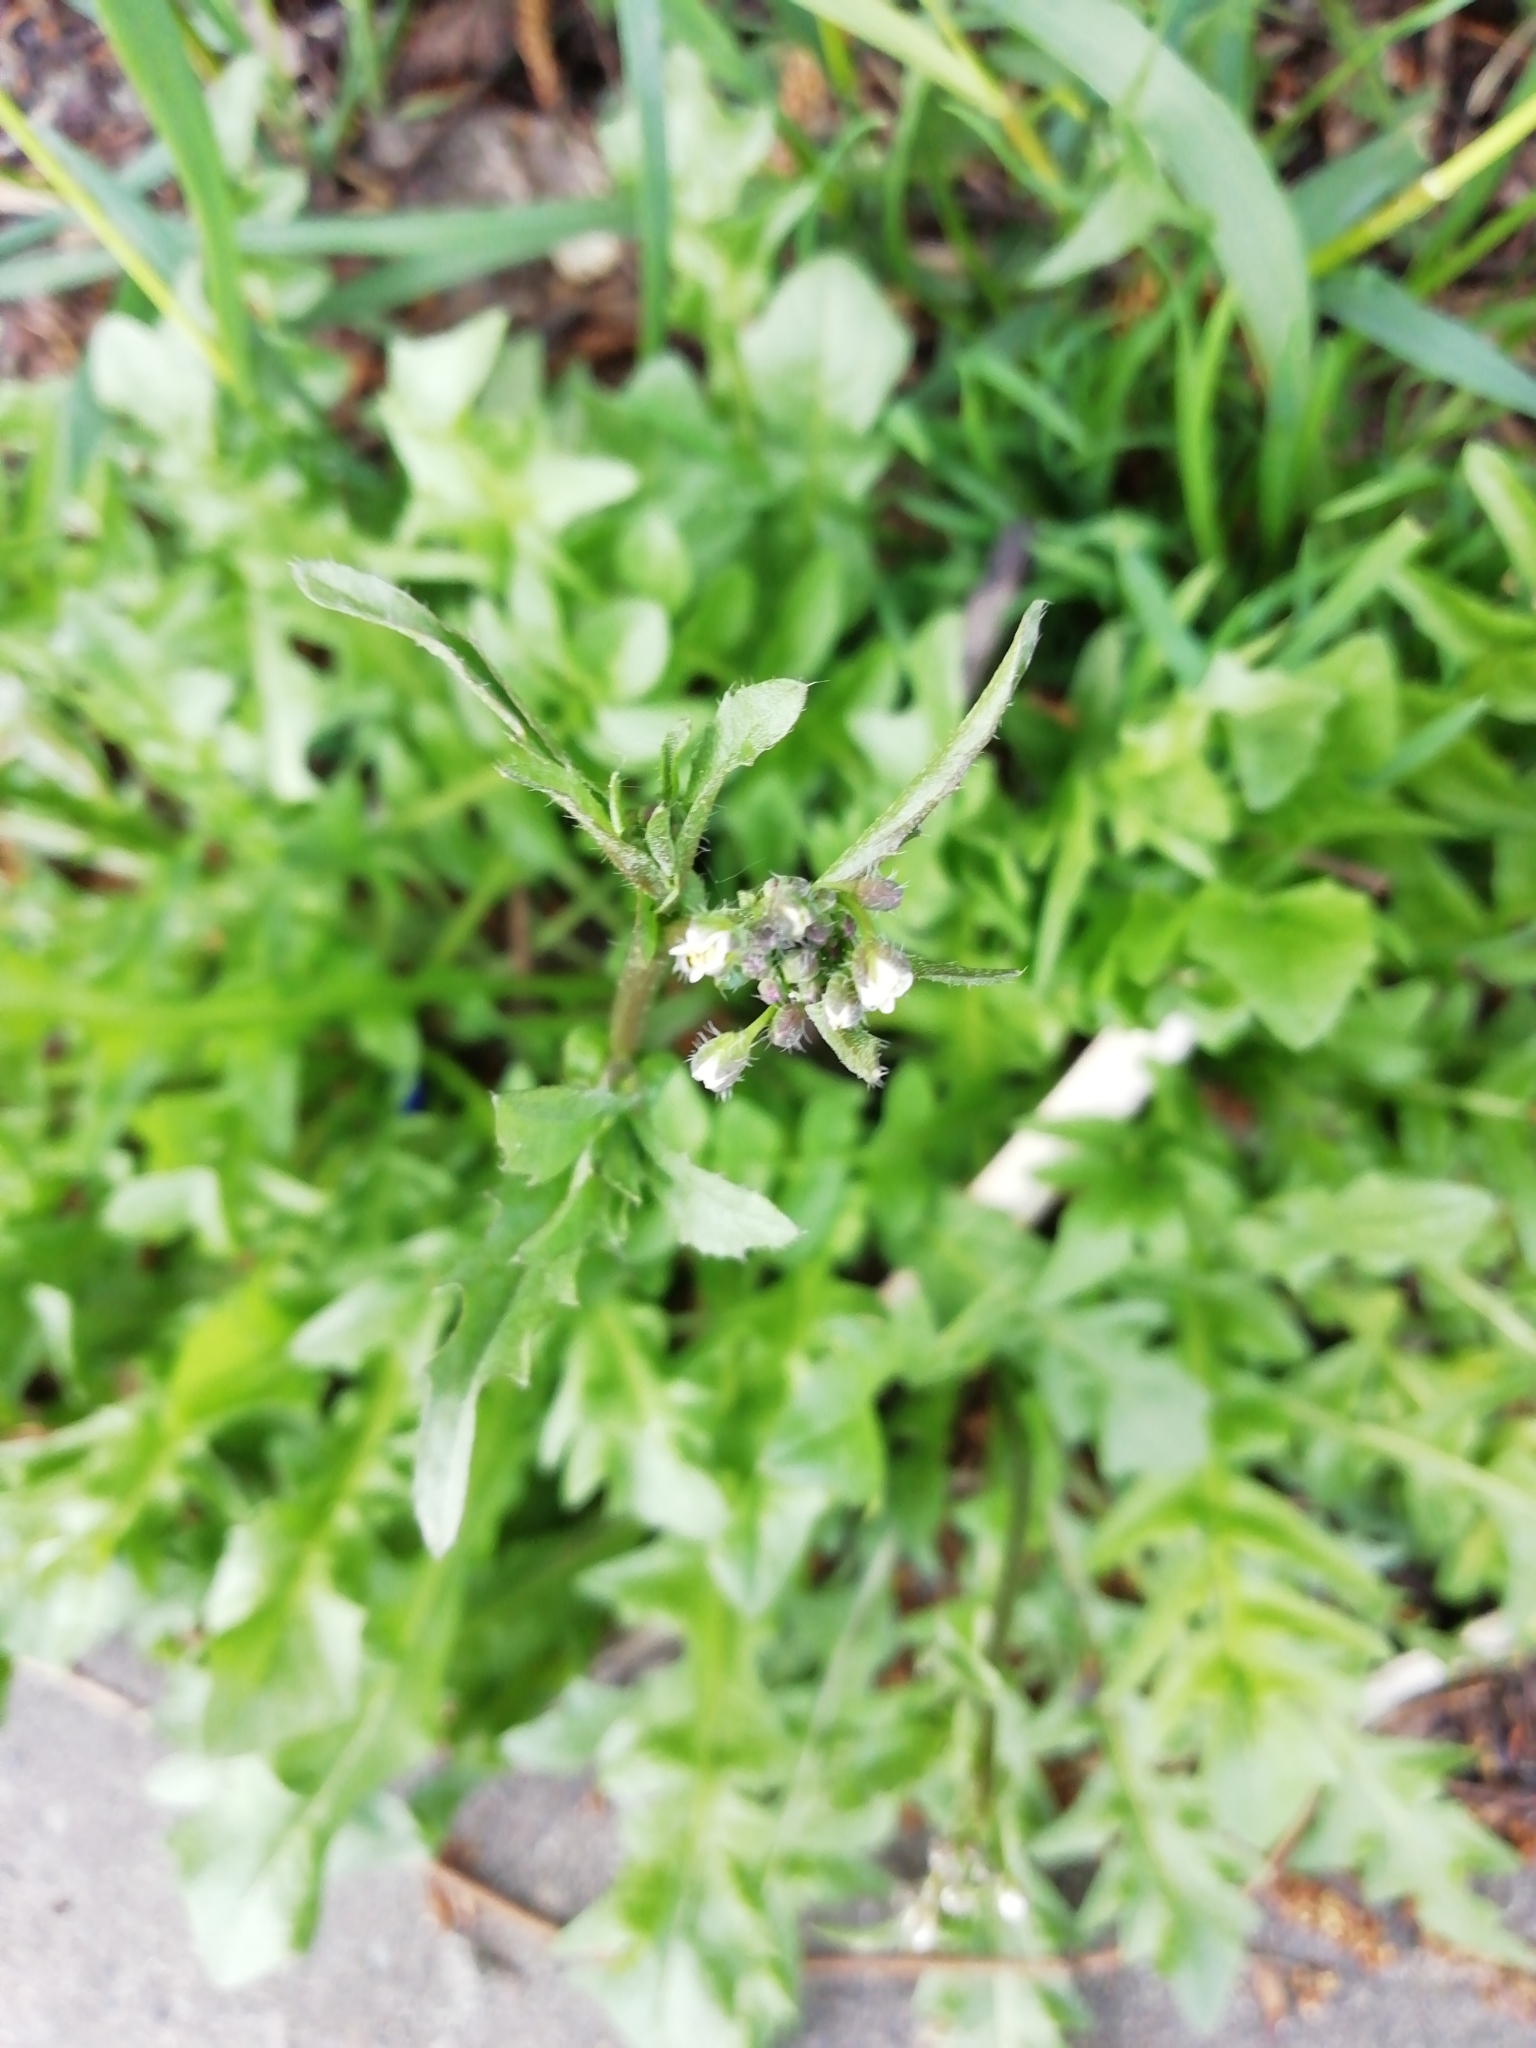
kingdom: Plantae
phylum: Tracheophyta
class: Magnoliopsida
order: Brassicales
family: Brassicaceae
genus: Capsella
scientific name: Capsella bursa-pastoris
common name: Shepherd's purse
